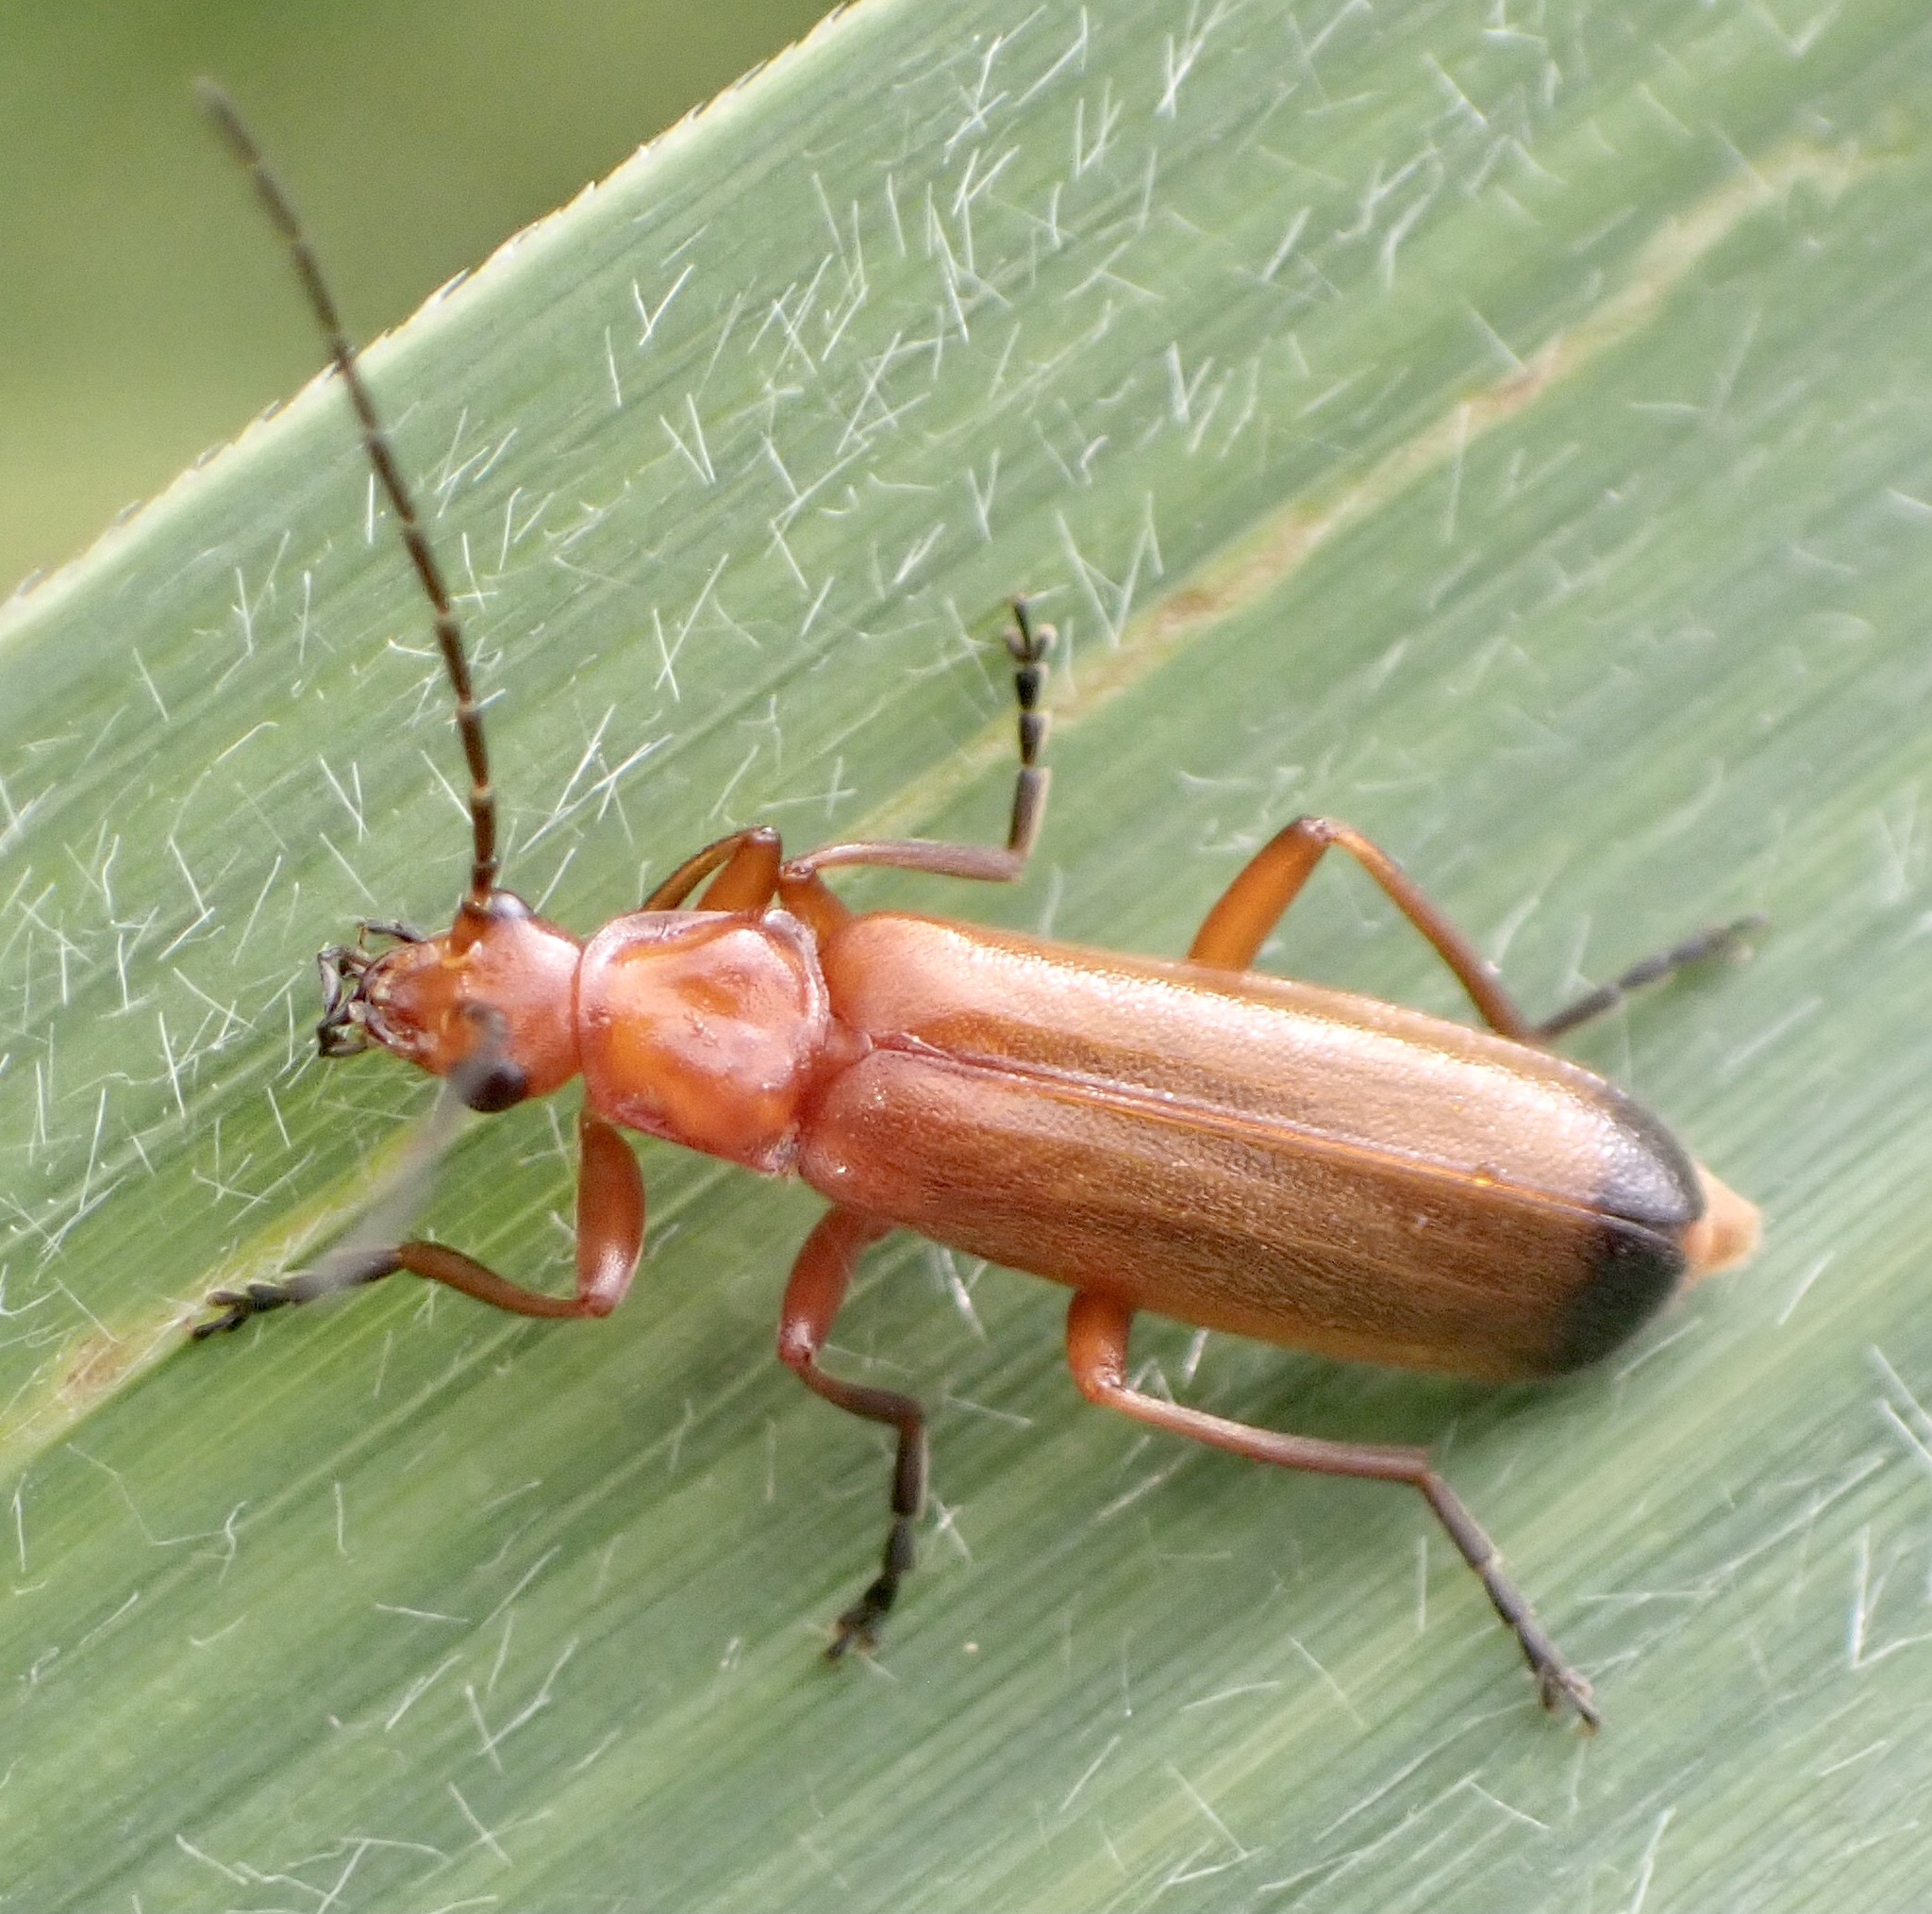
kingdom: Animalia
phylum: Arthropoda
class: Insecta
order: Coleoptera
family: Cantharidae
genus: Rhagonycha
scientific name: Rhagonycha fulva
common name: Common red soldier beetle
